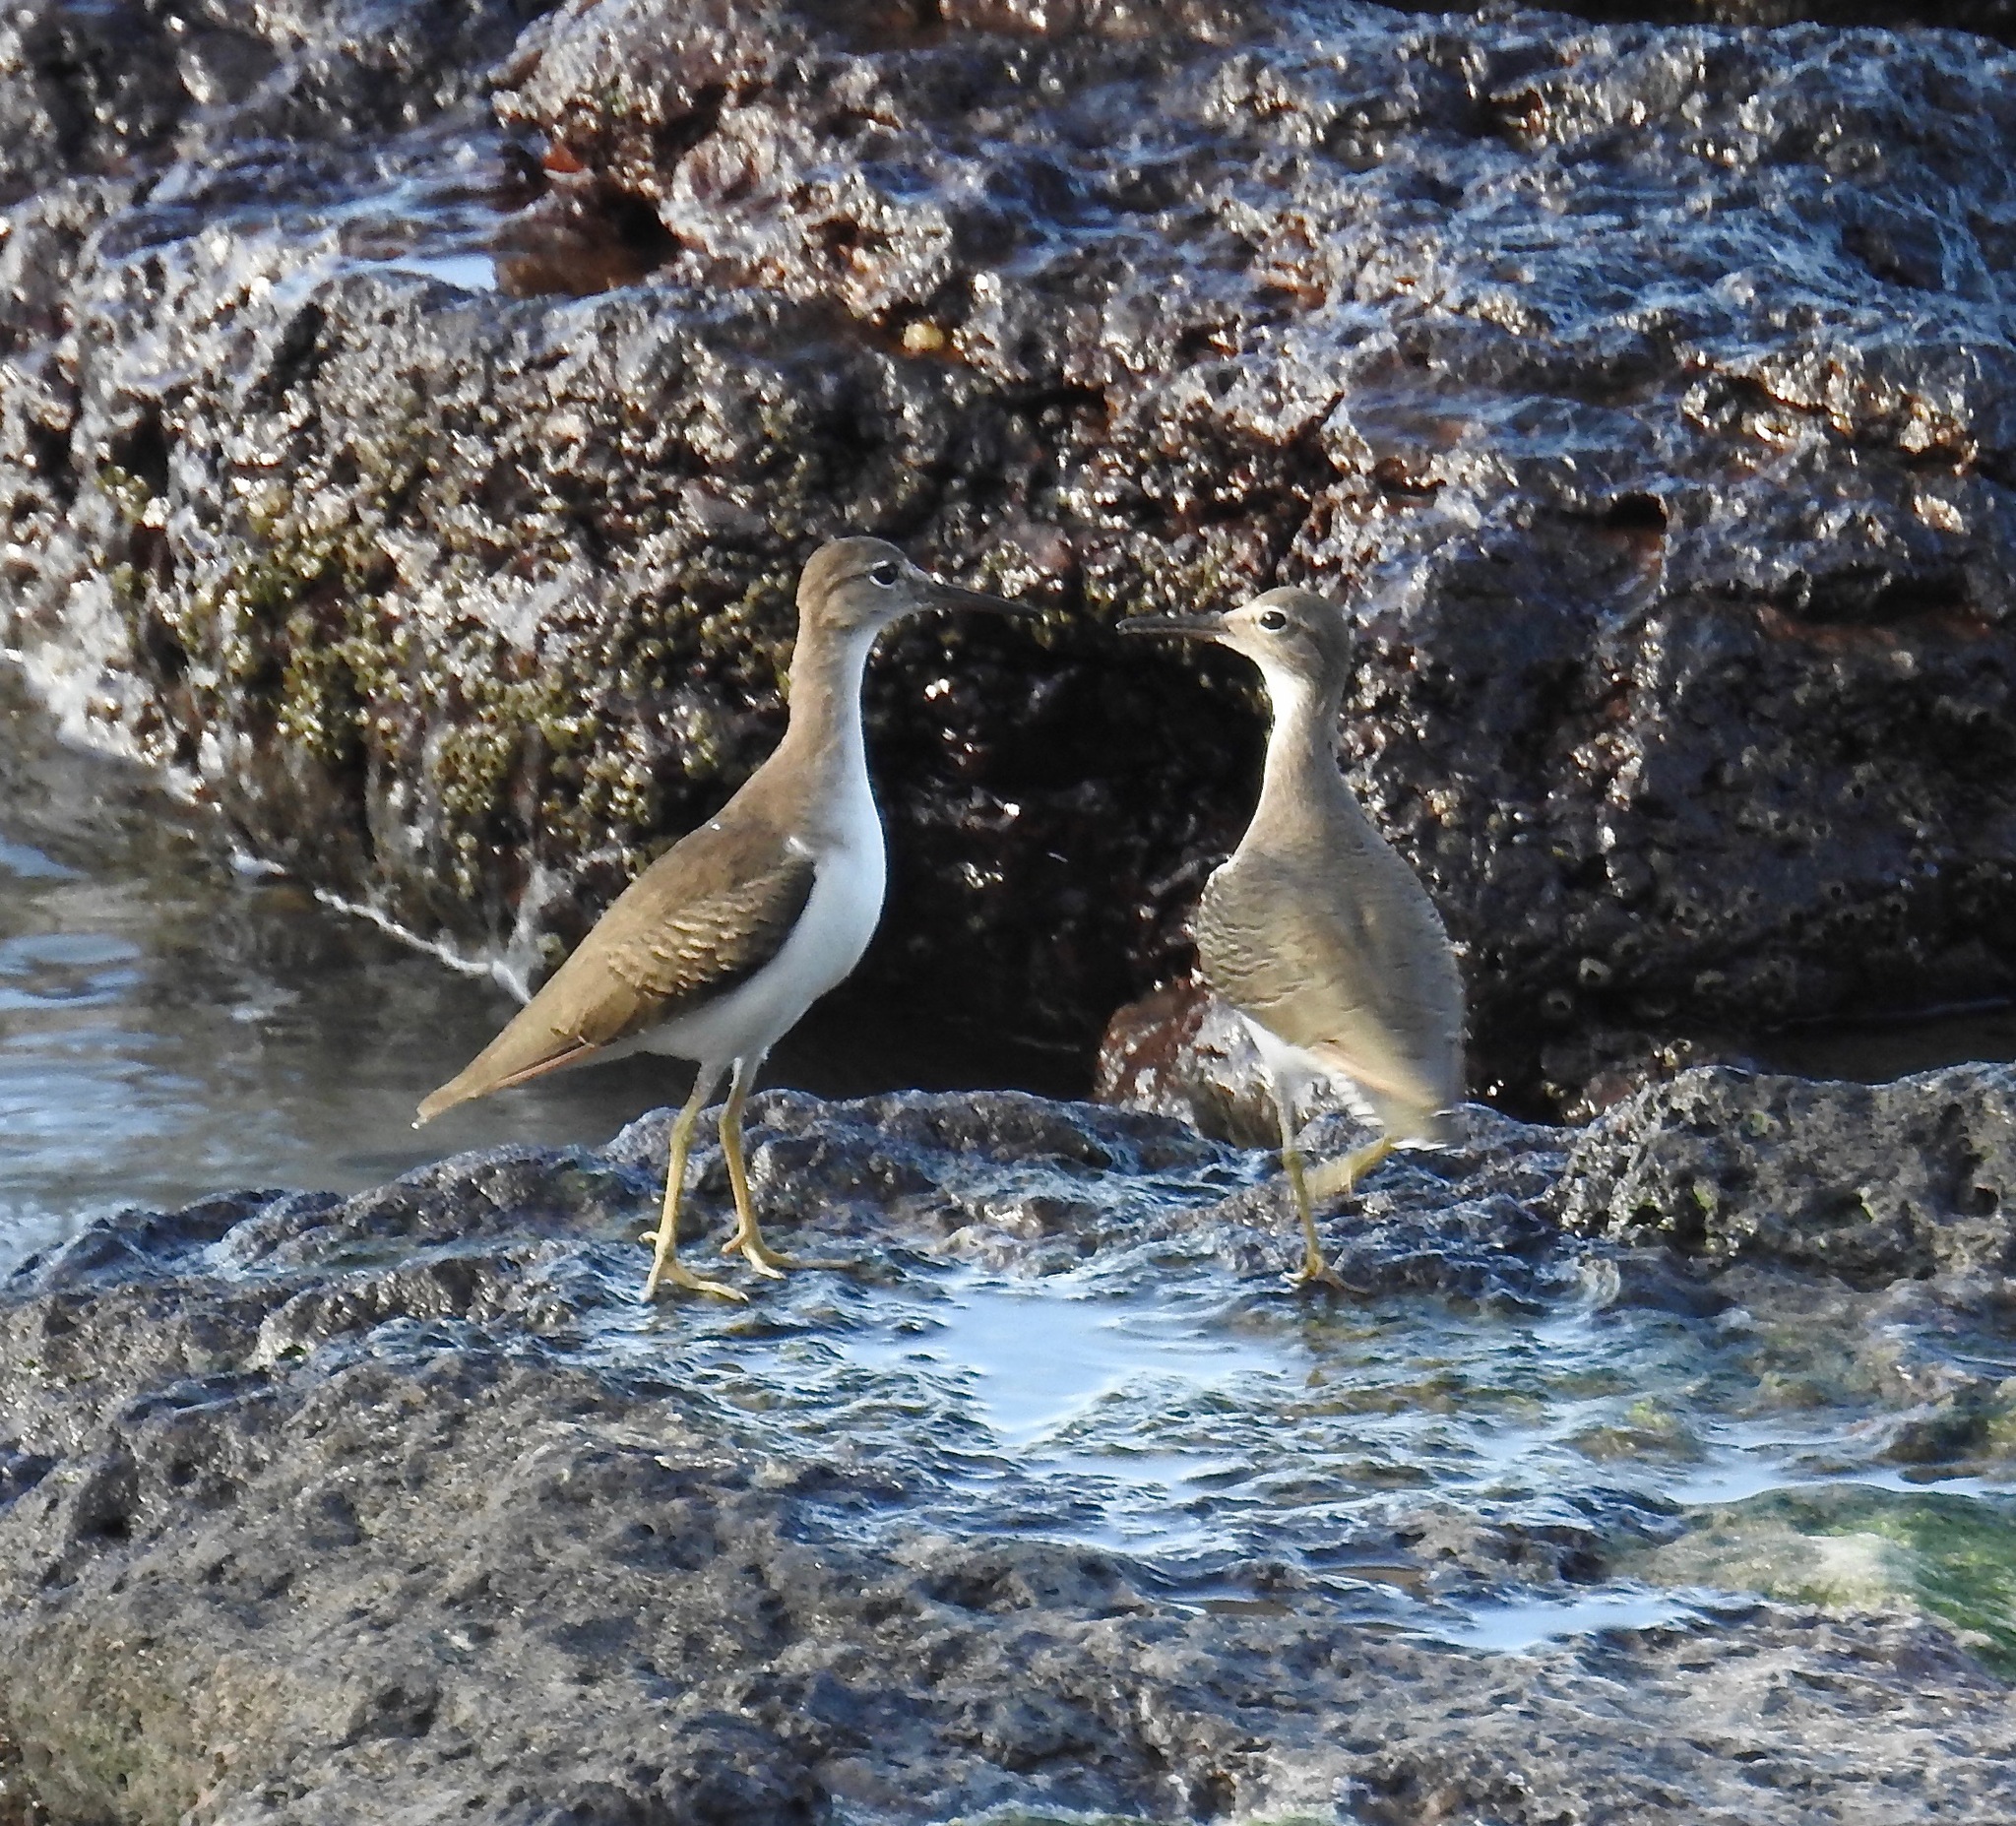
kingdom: Animalia
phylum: Chordata
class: Aves
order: Charadriiformes
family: Scolopacidae
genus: Actitis
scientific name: Actitis macularius
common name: Spotted sandpiper
